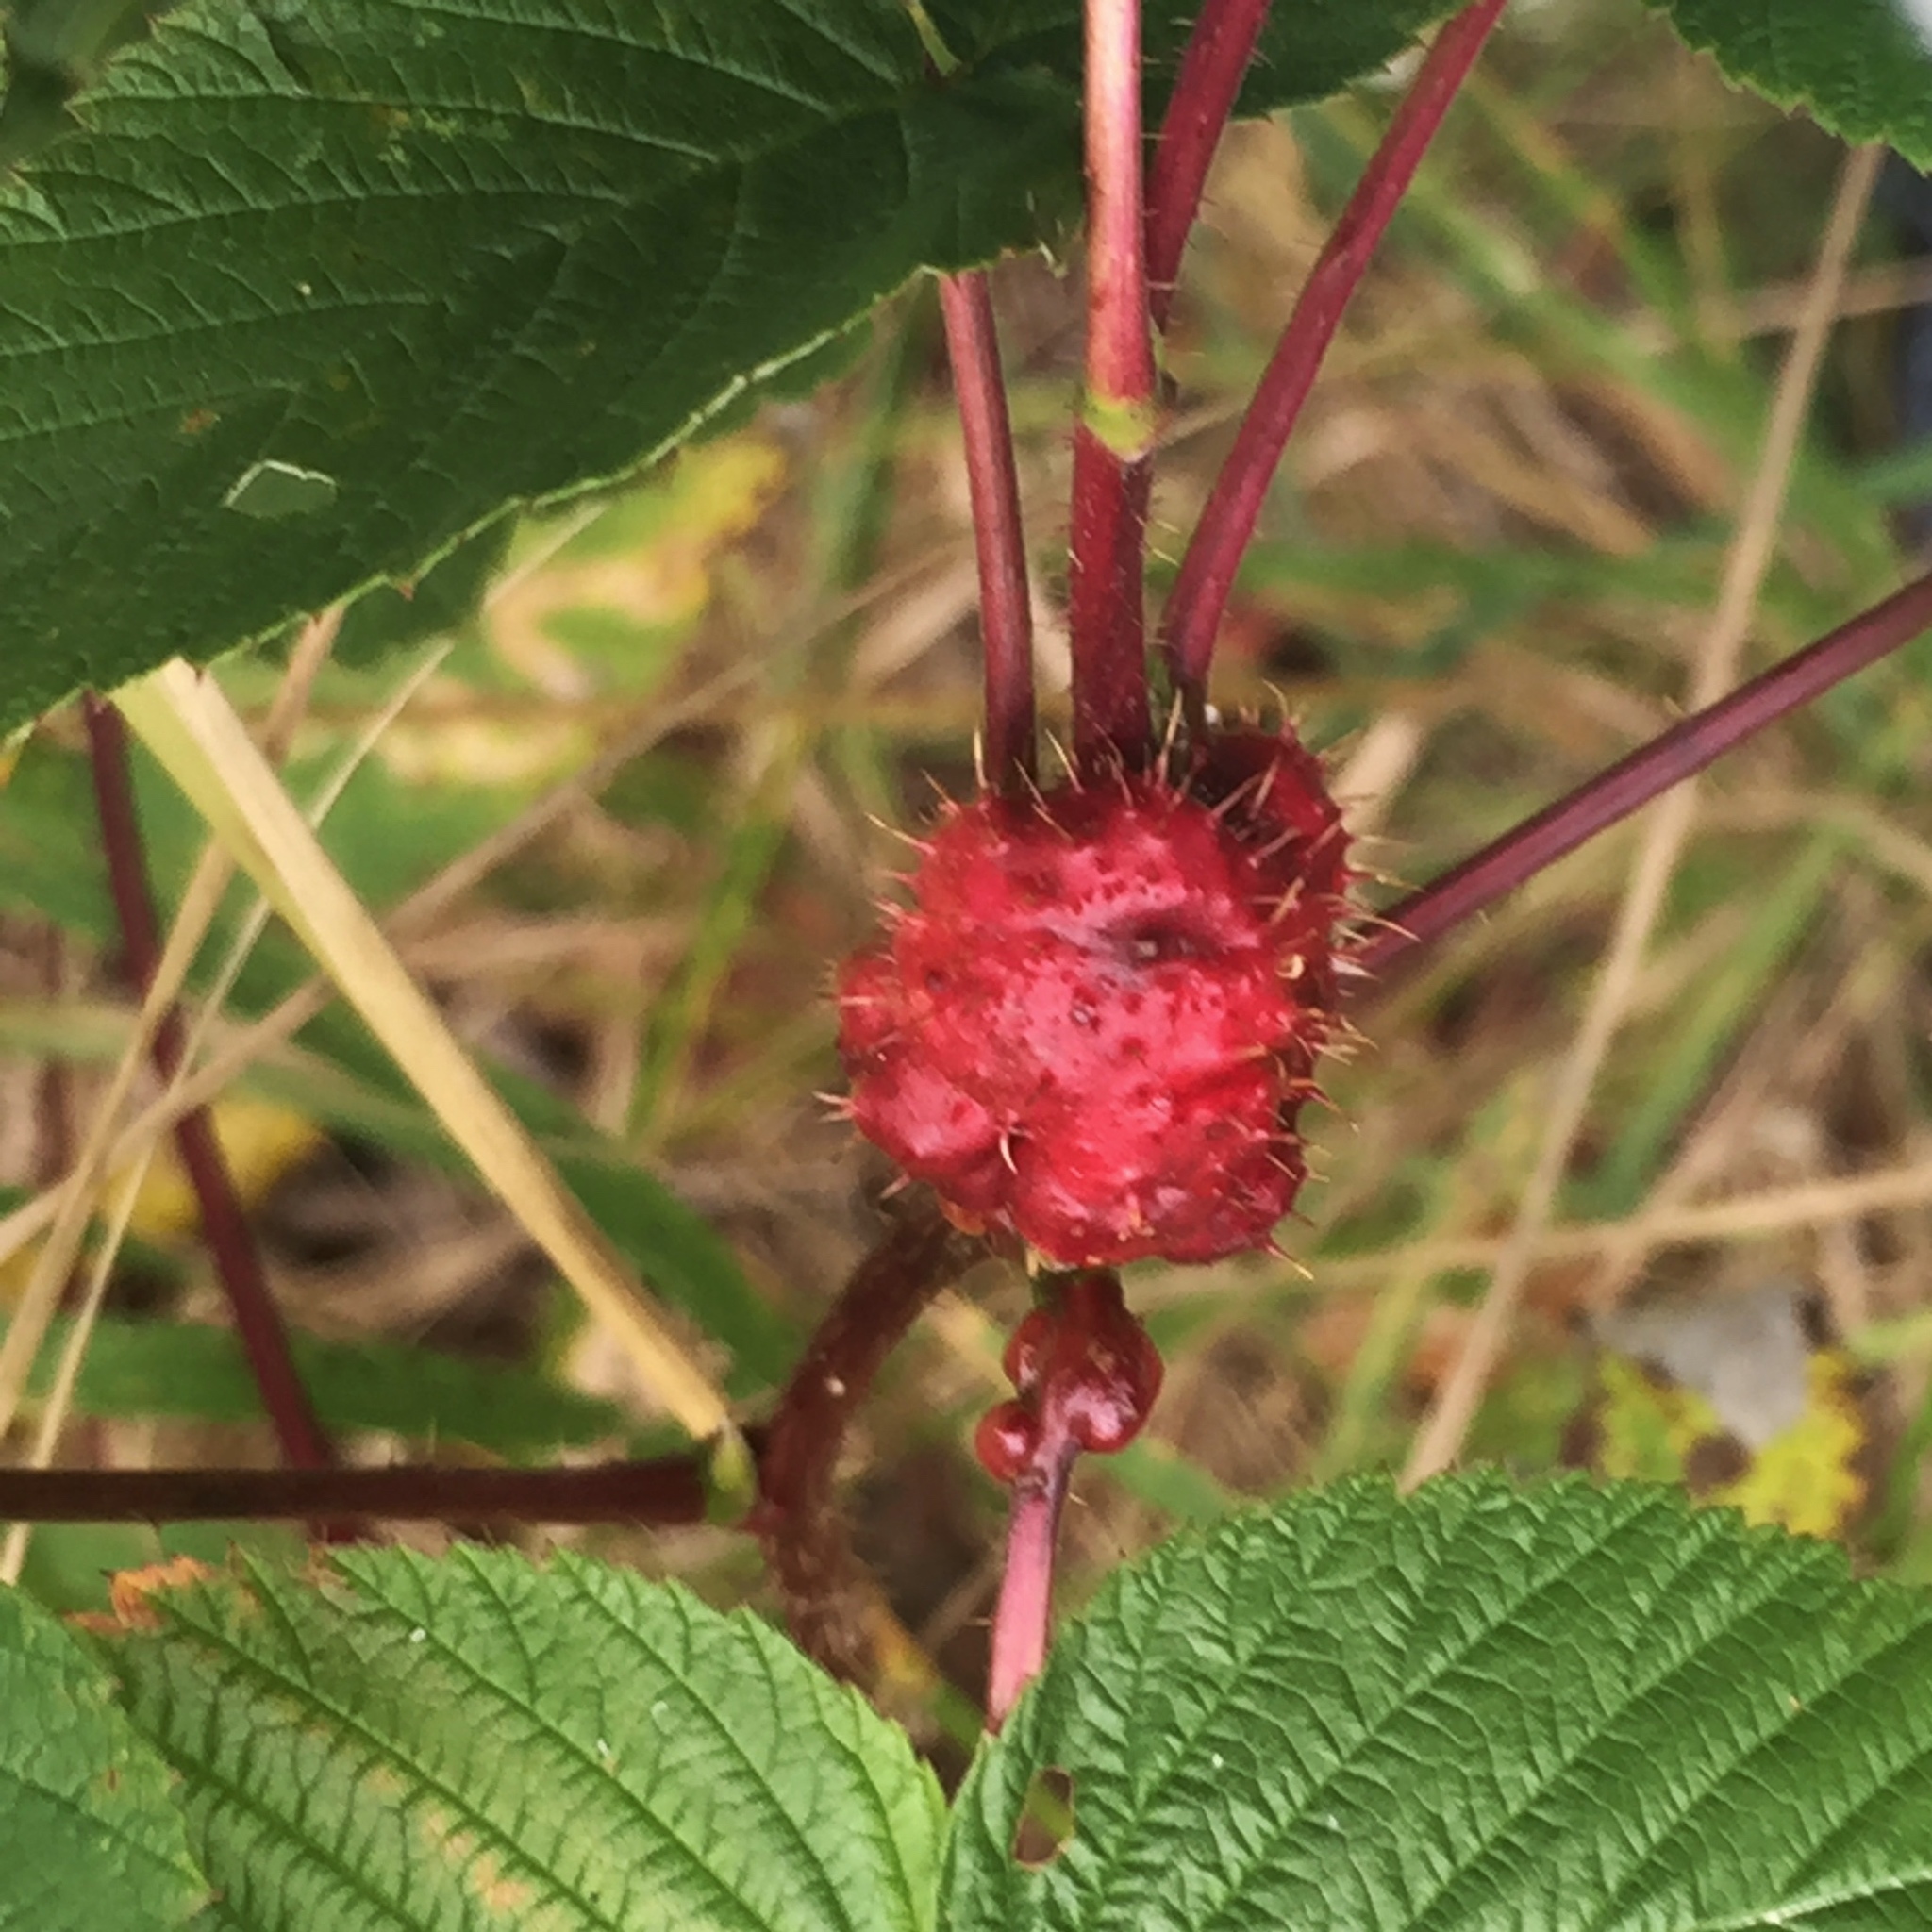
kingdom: Animalia
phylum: Arthropoda
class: Insecta
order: Hymenoptera
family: Cynipidae
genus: Diastrophus
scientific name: Diastrophus turgidus
